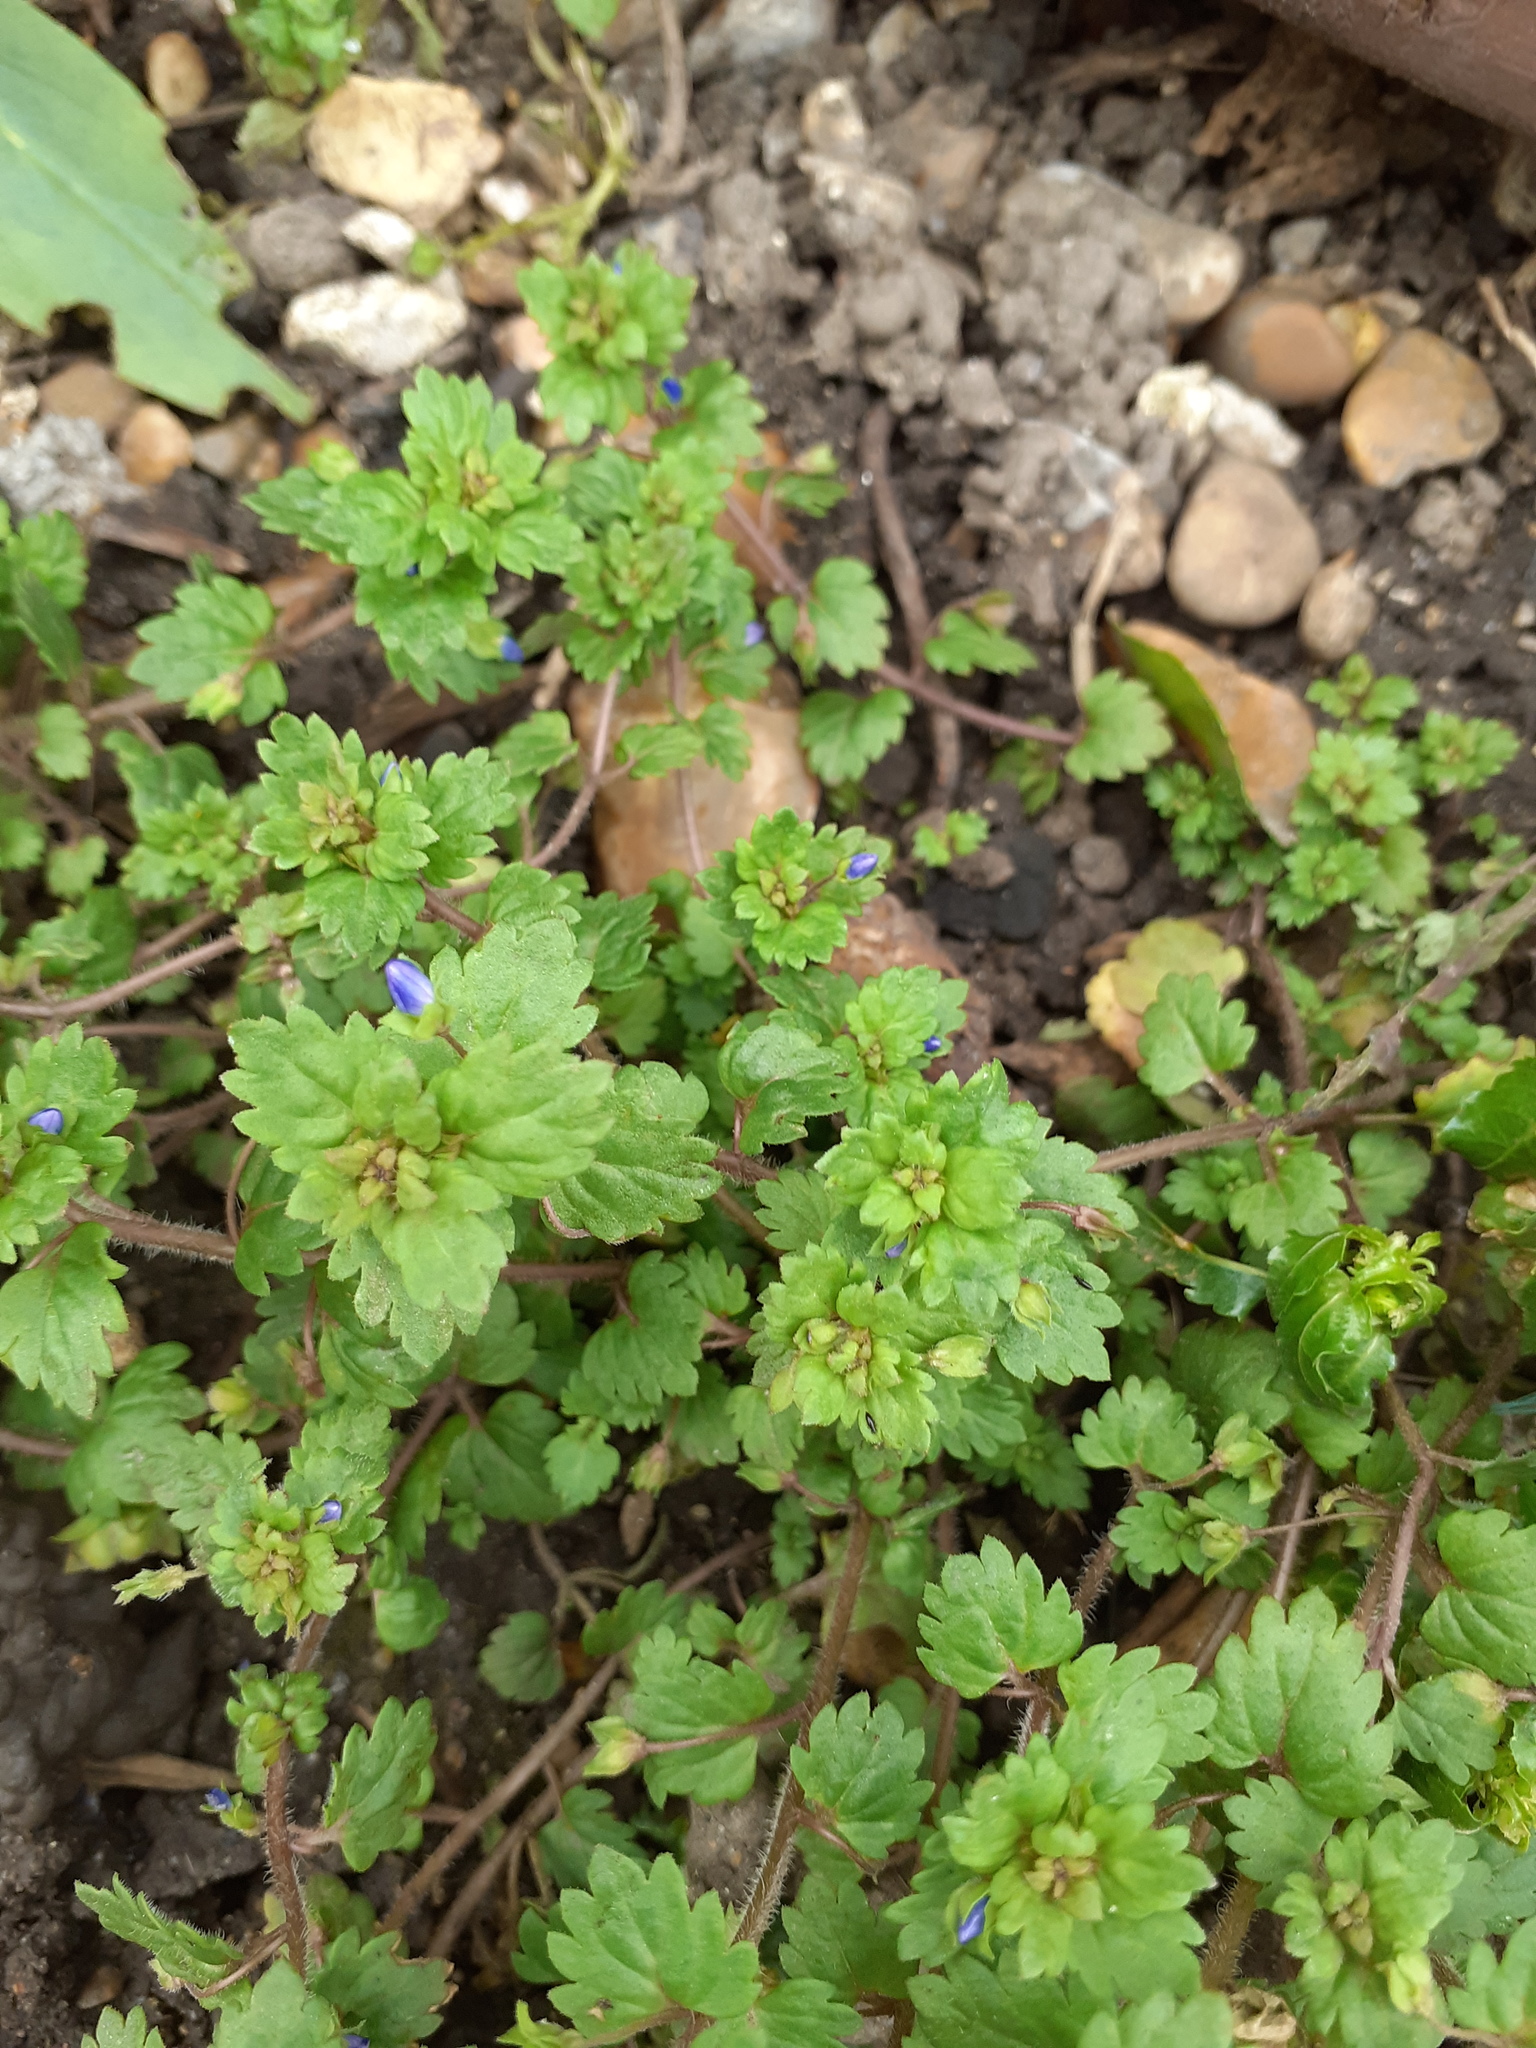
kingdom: Plantae
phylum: Tracheophyta
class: Magnoliopsida
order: Lamiales
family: Plantaginaceae
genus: Veronica
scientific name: Veronica persica
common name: Common field-speedwell
